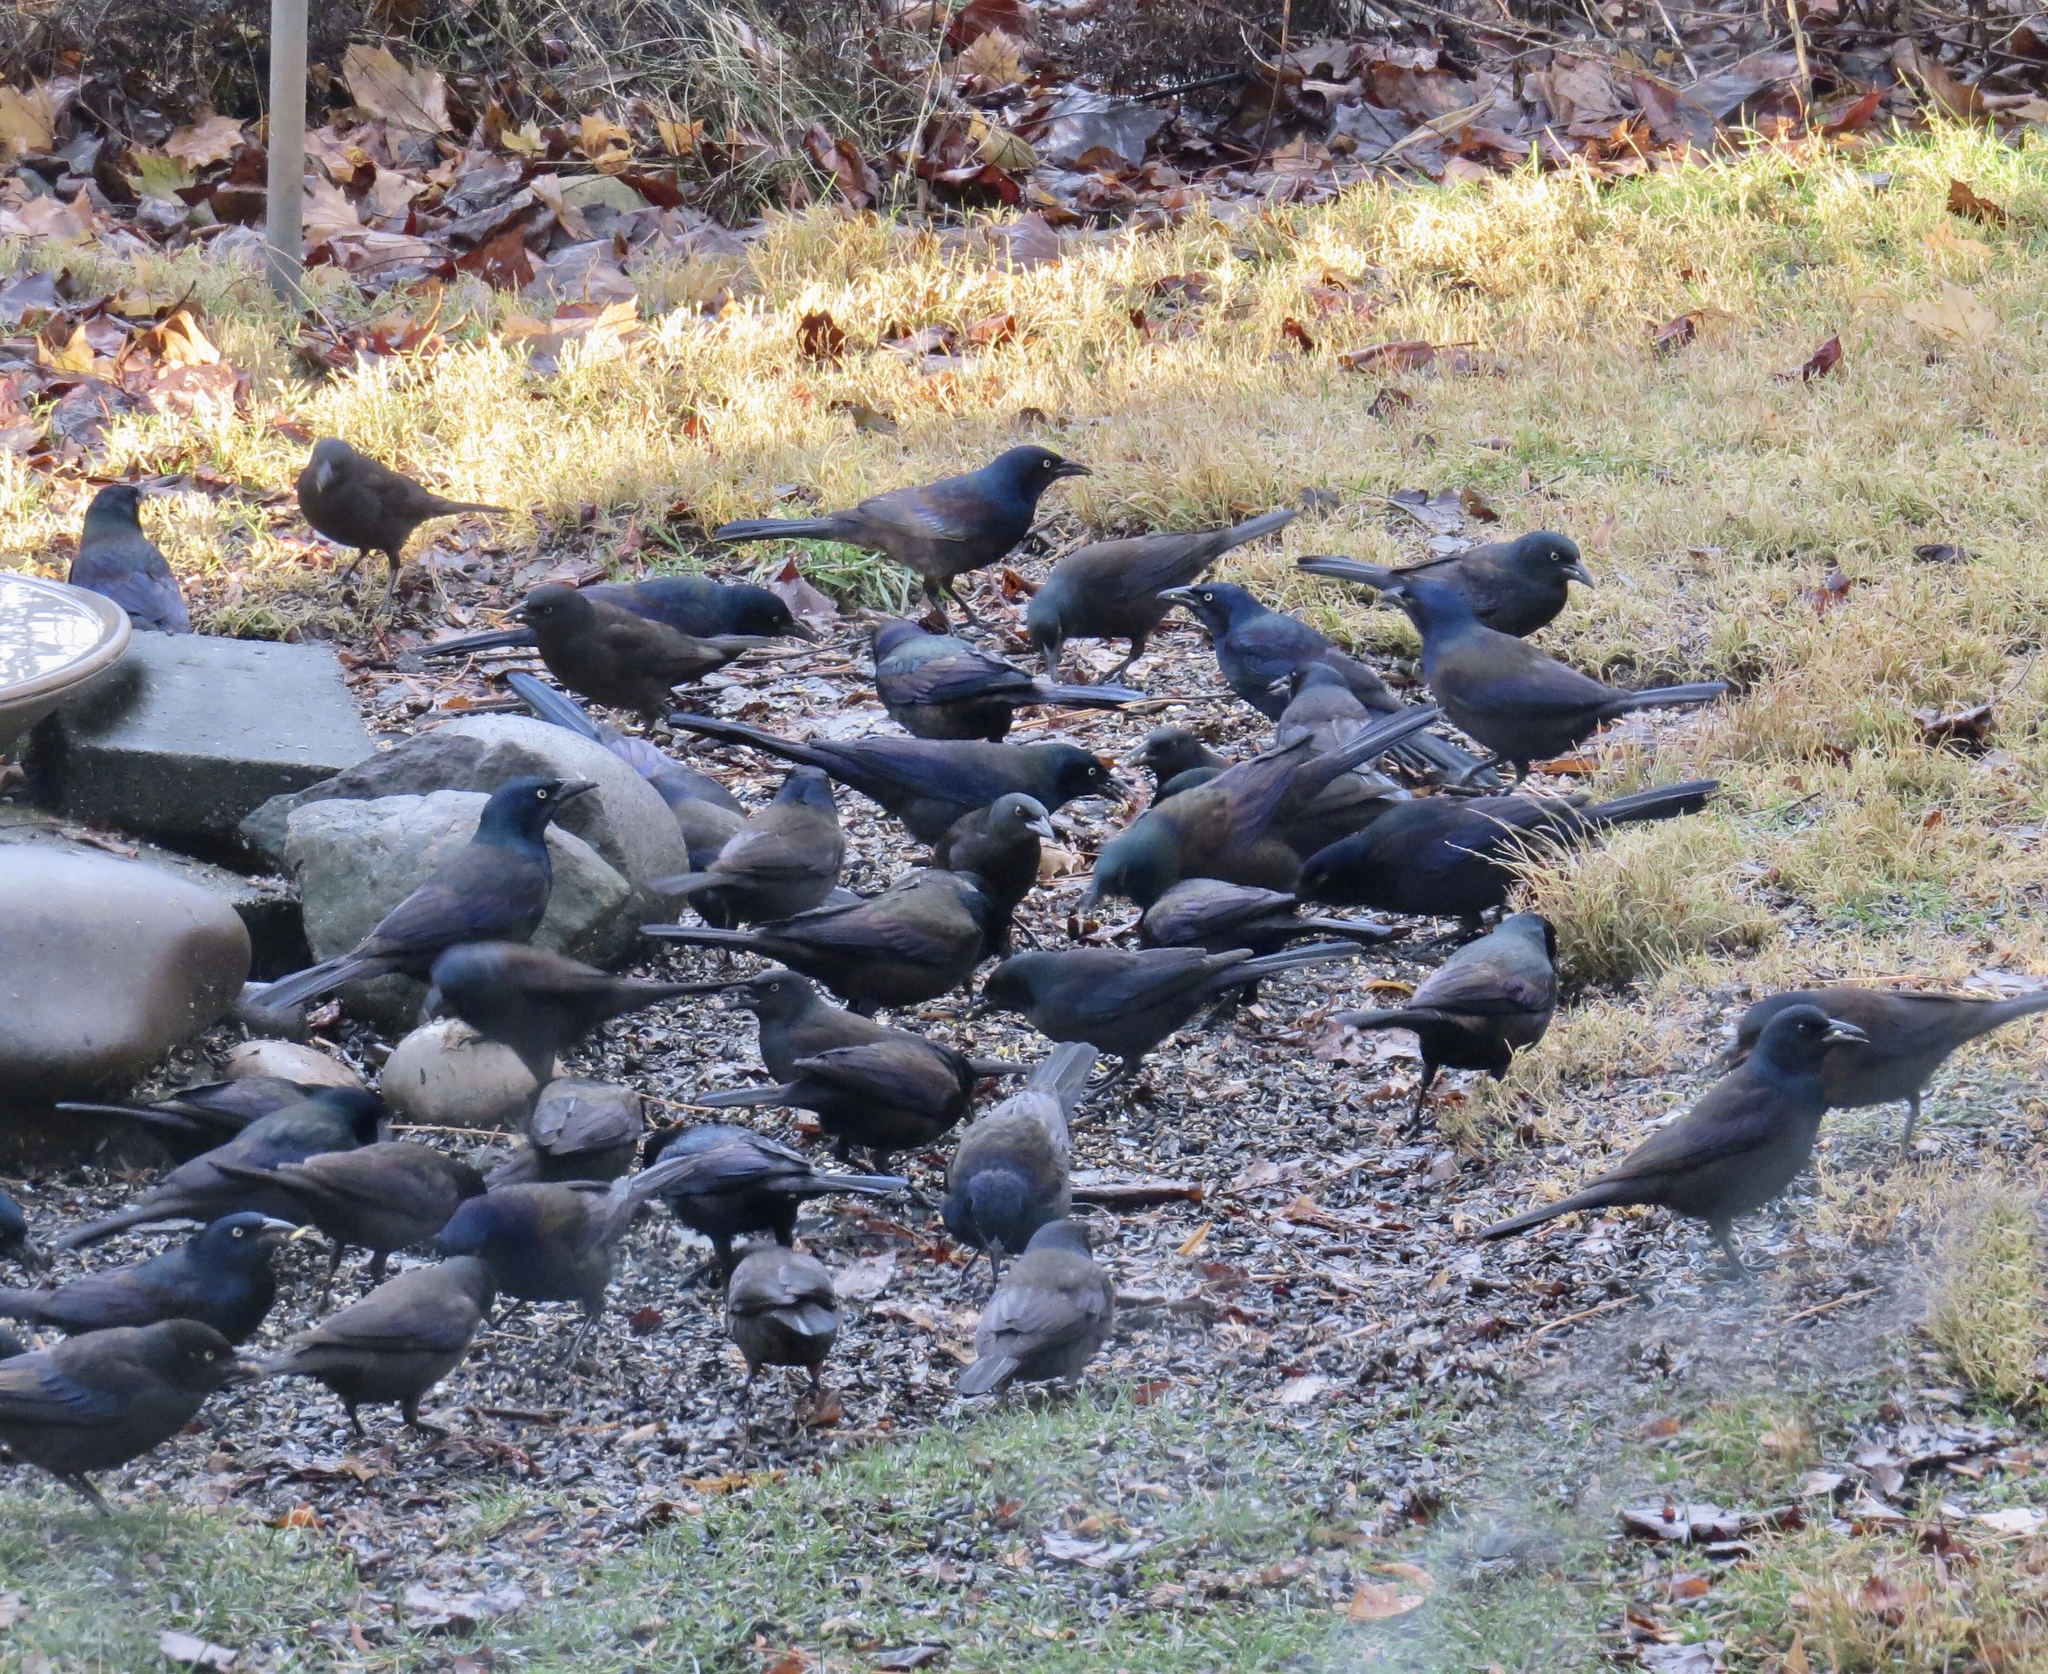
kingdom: Animalia
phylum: Chordata
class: Aves
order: Passeriformes
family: Icteridae
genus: Quiscalus
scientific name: Quiscalus quiscula
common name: Common grackle
